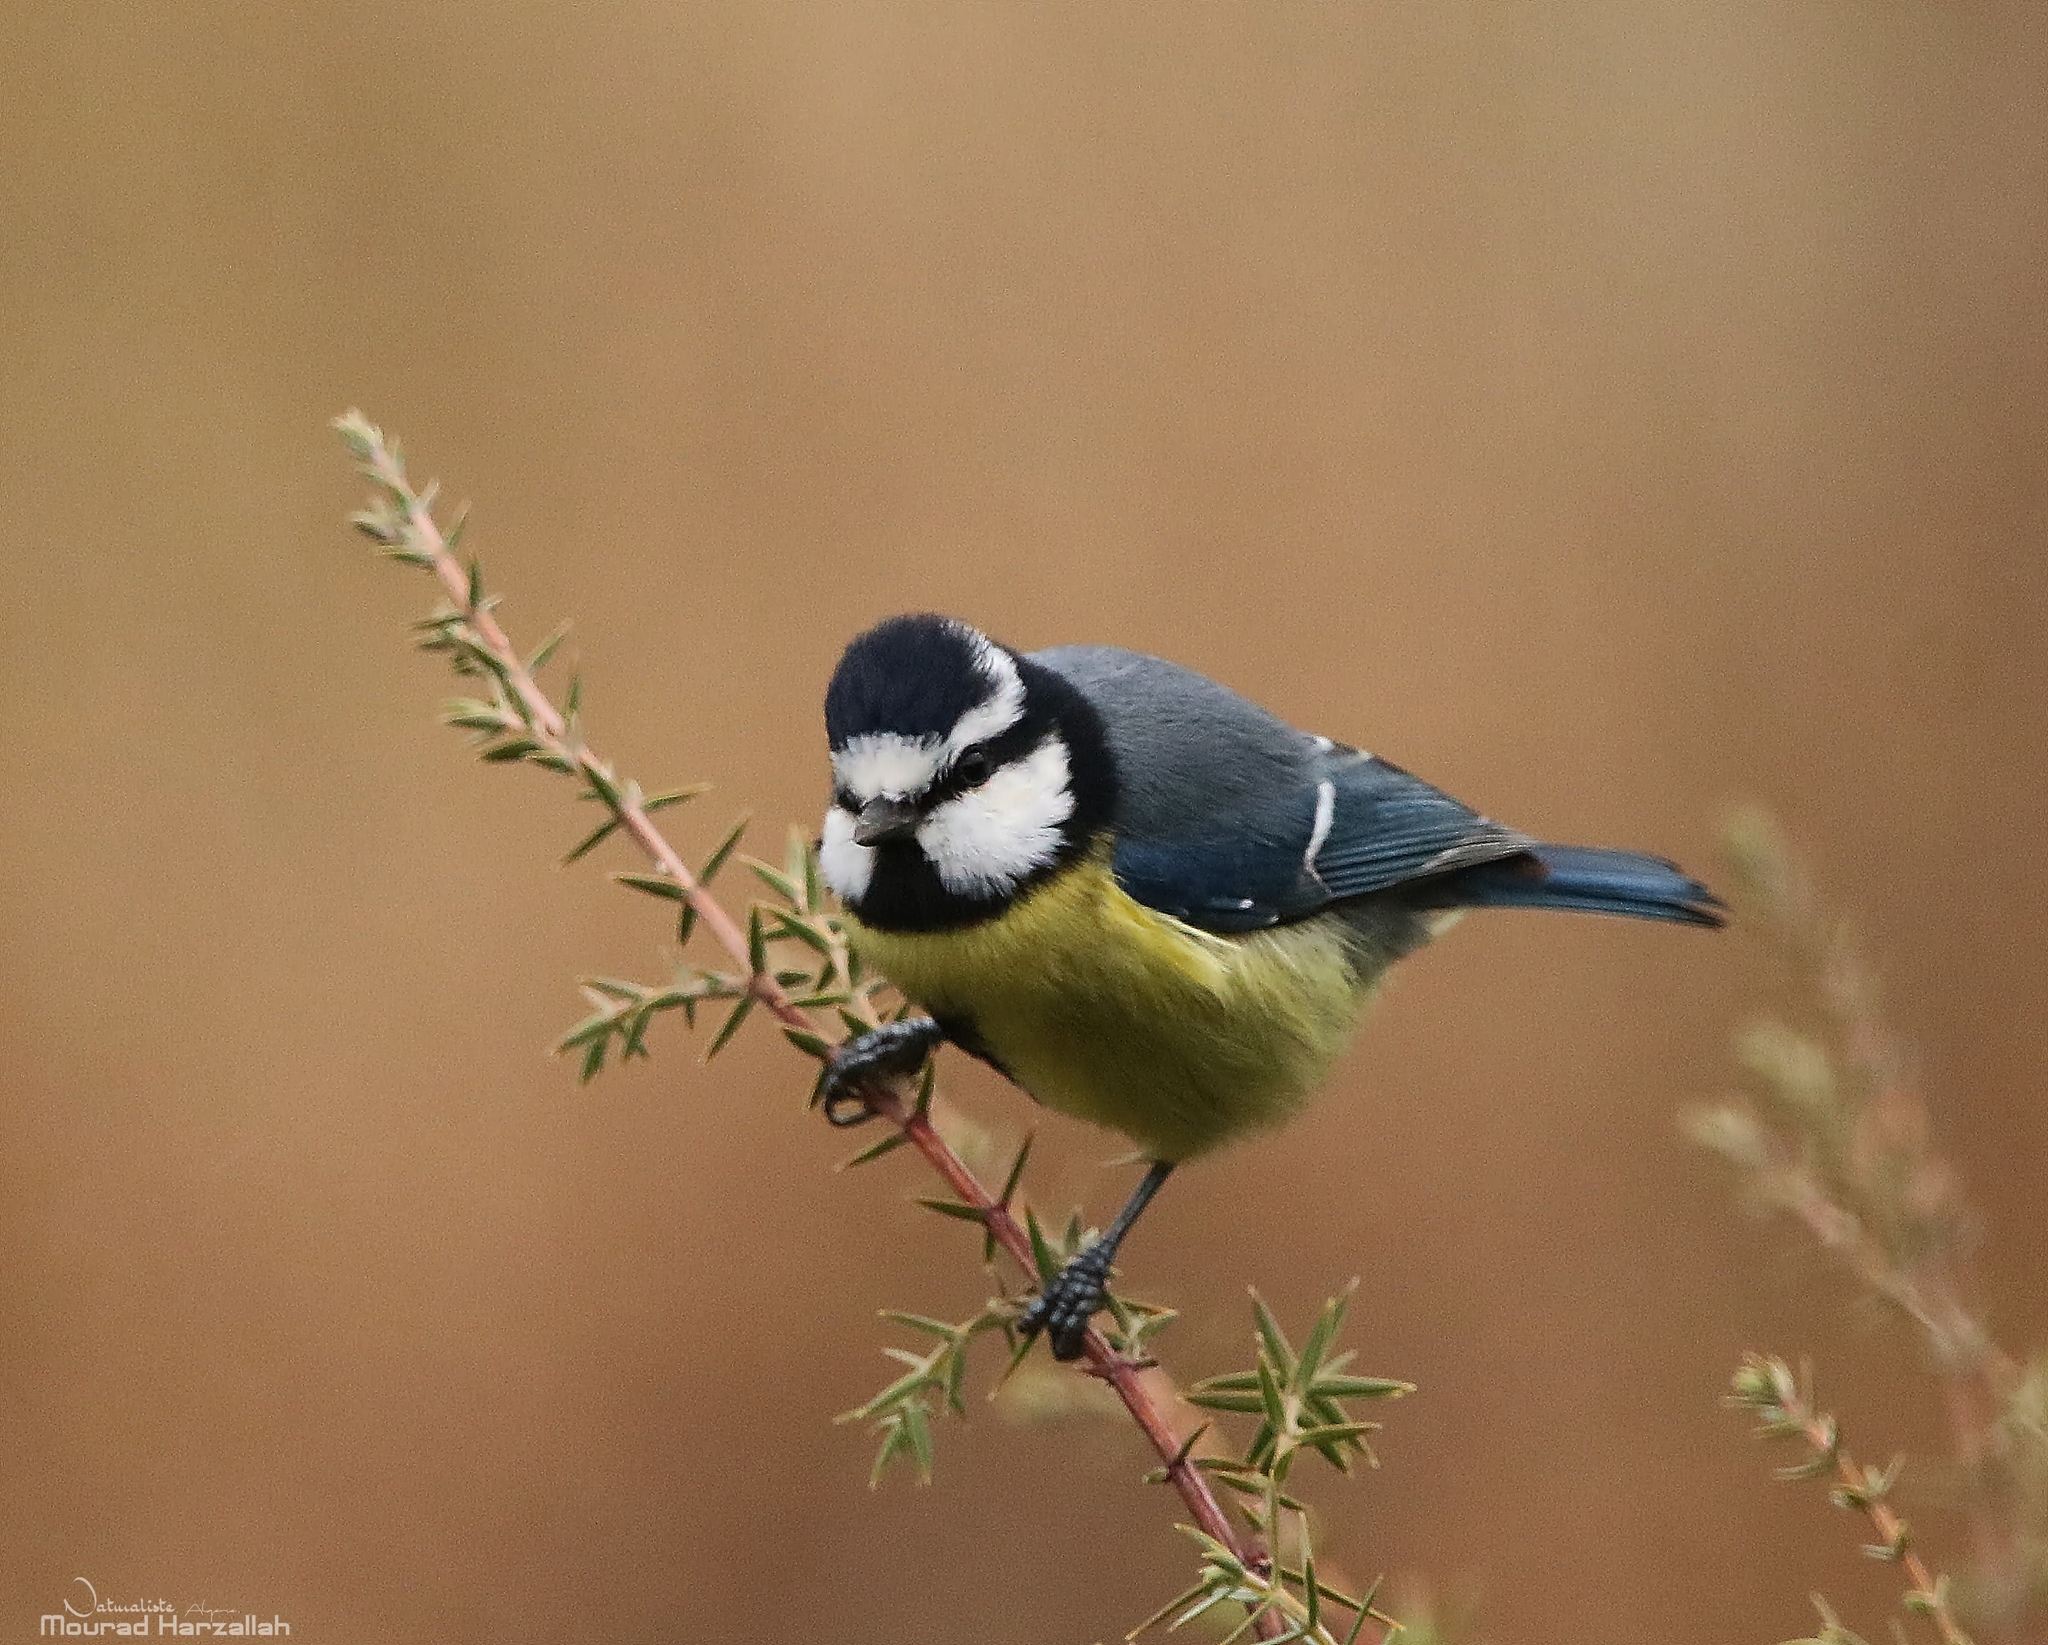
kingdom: Animalia
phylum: Chordata
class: Aves
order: Passeriformes
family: Paridae
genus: Cyanistes
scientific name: Cyanistes teneriffae
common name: African blue tit
